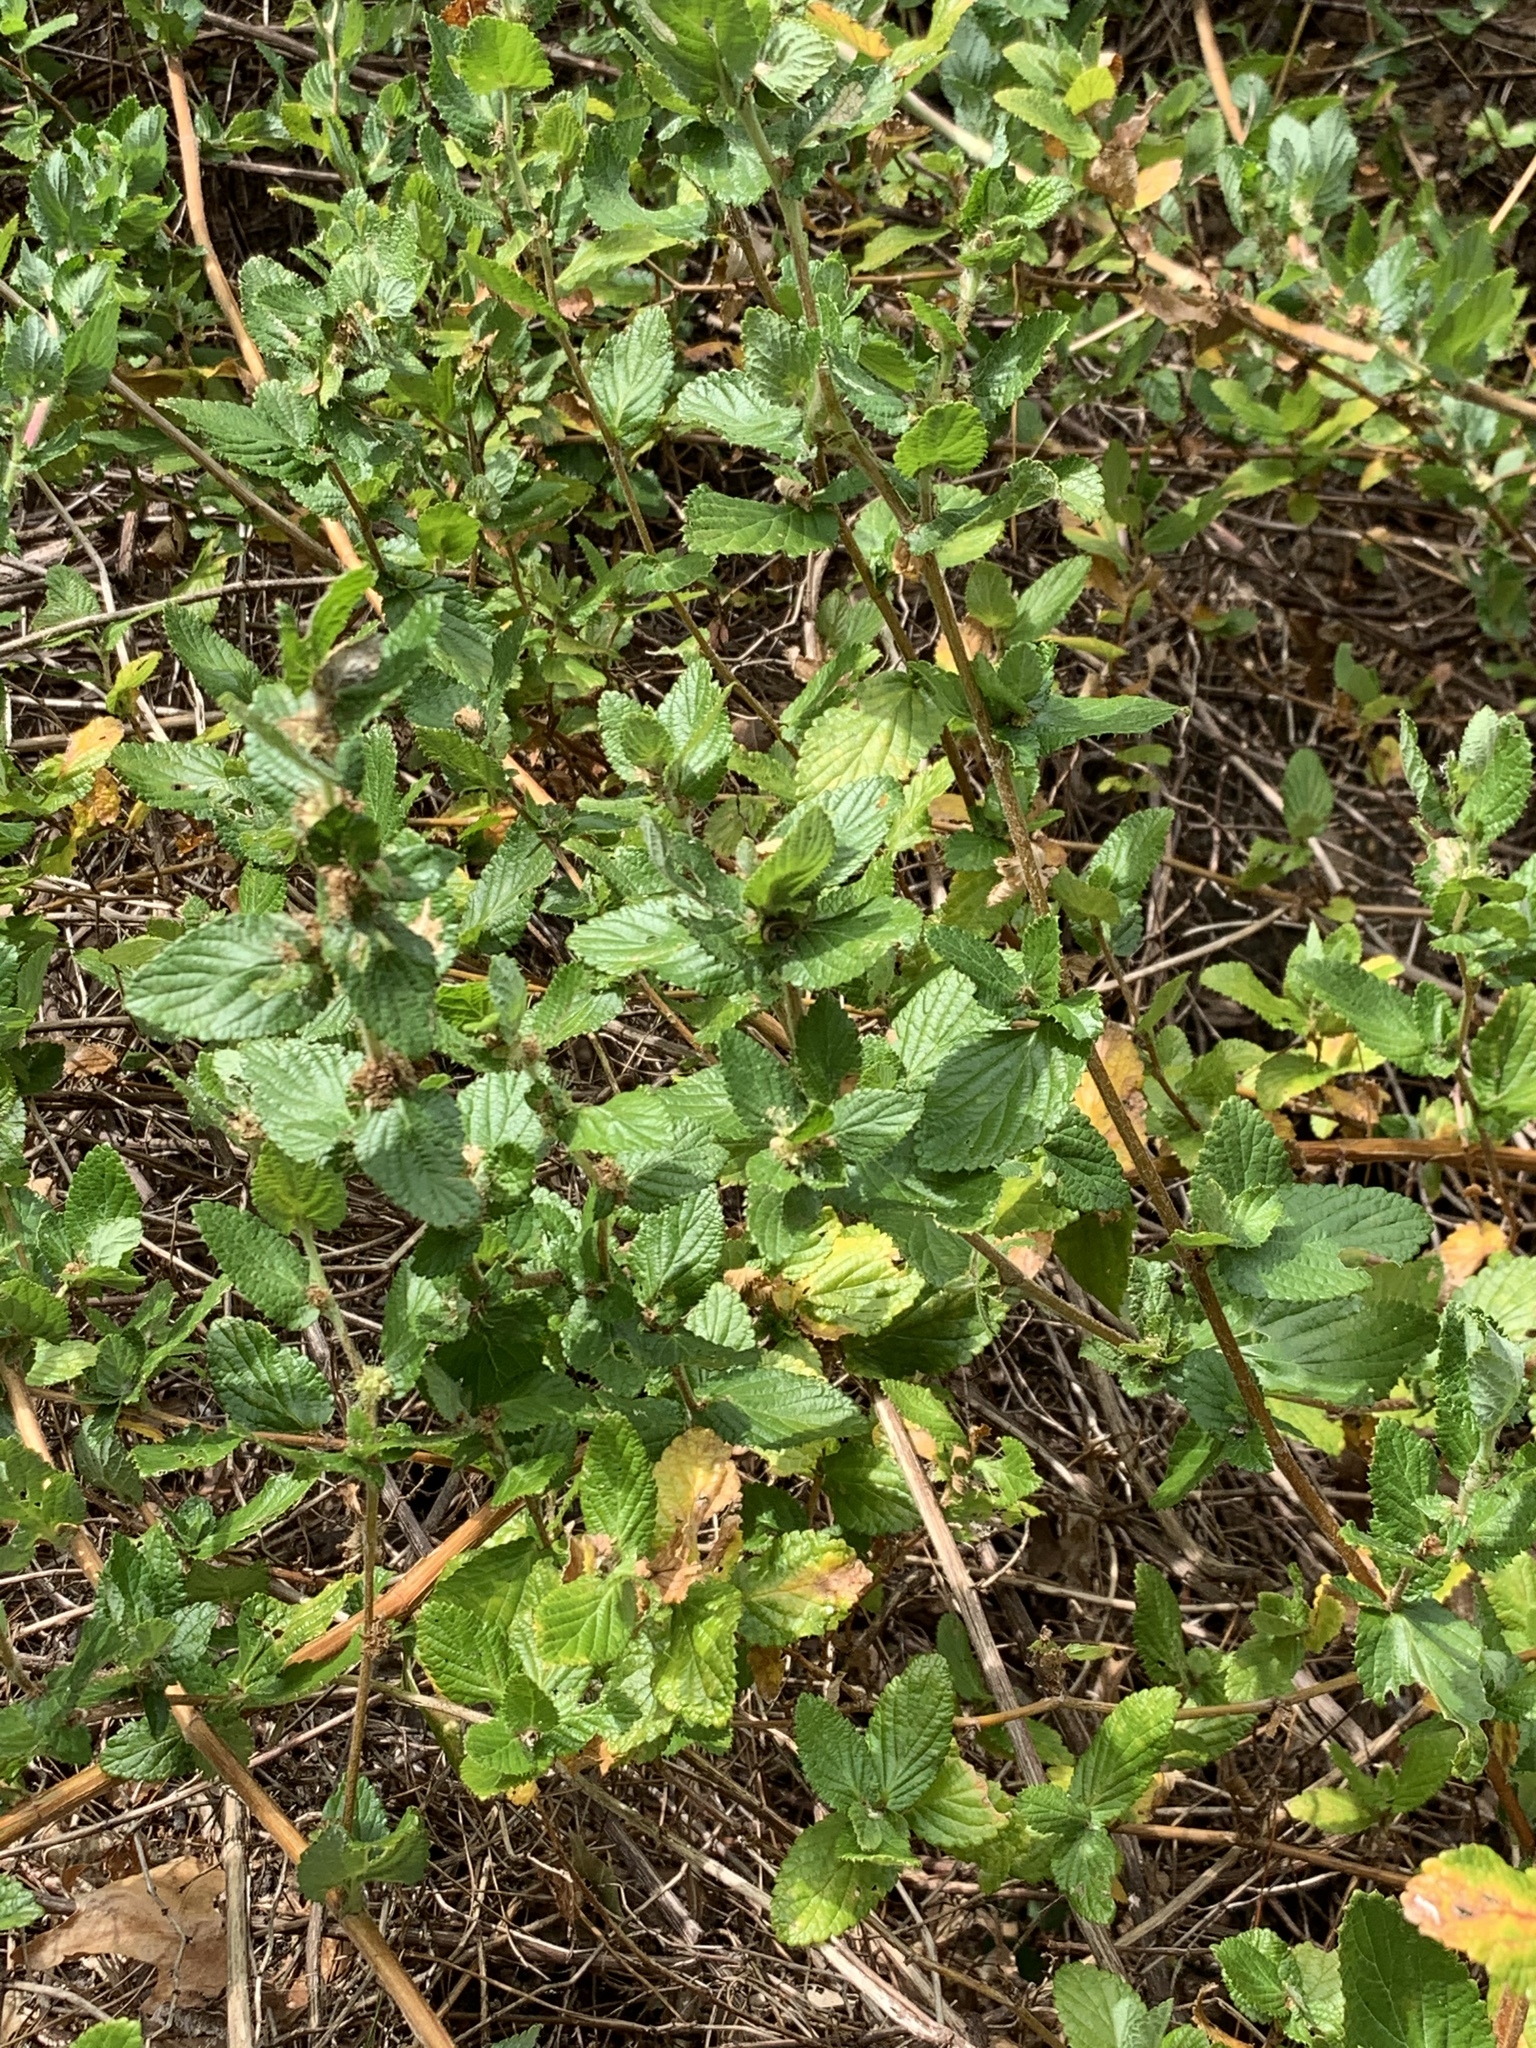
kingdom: Plantae
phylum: Tracheophyta
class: Magnoliopsida
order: Rosales
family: Rosaceae
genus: Cliffortia
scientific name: Cliffortia odorata
